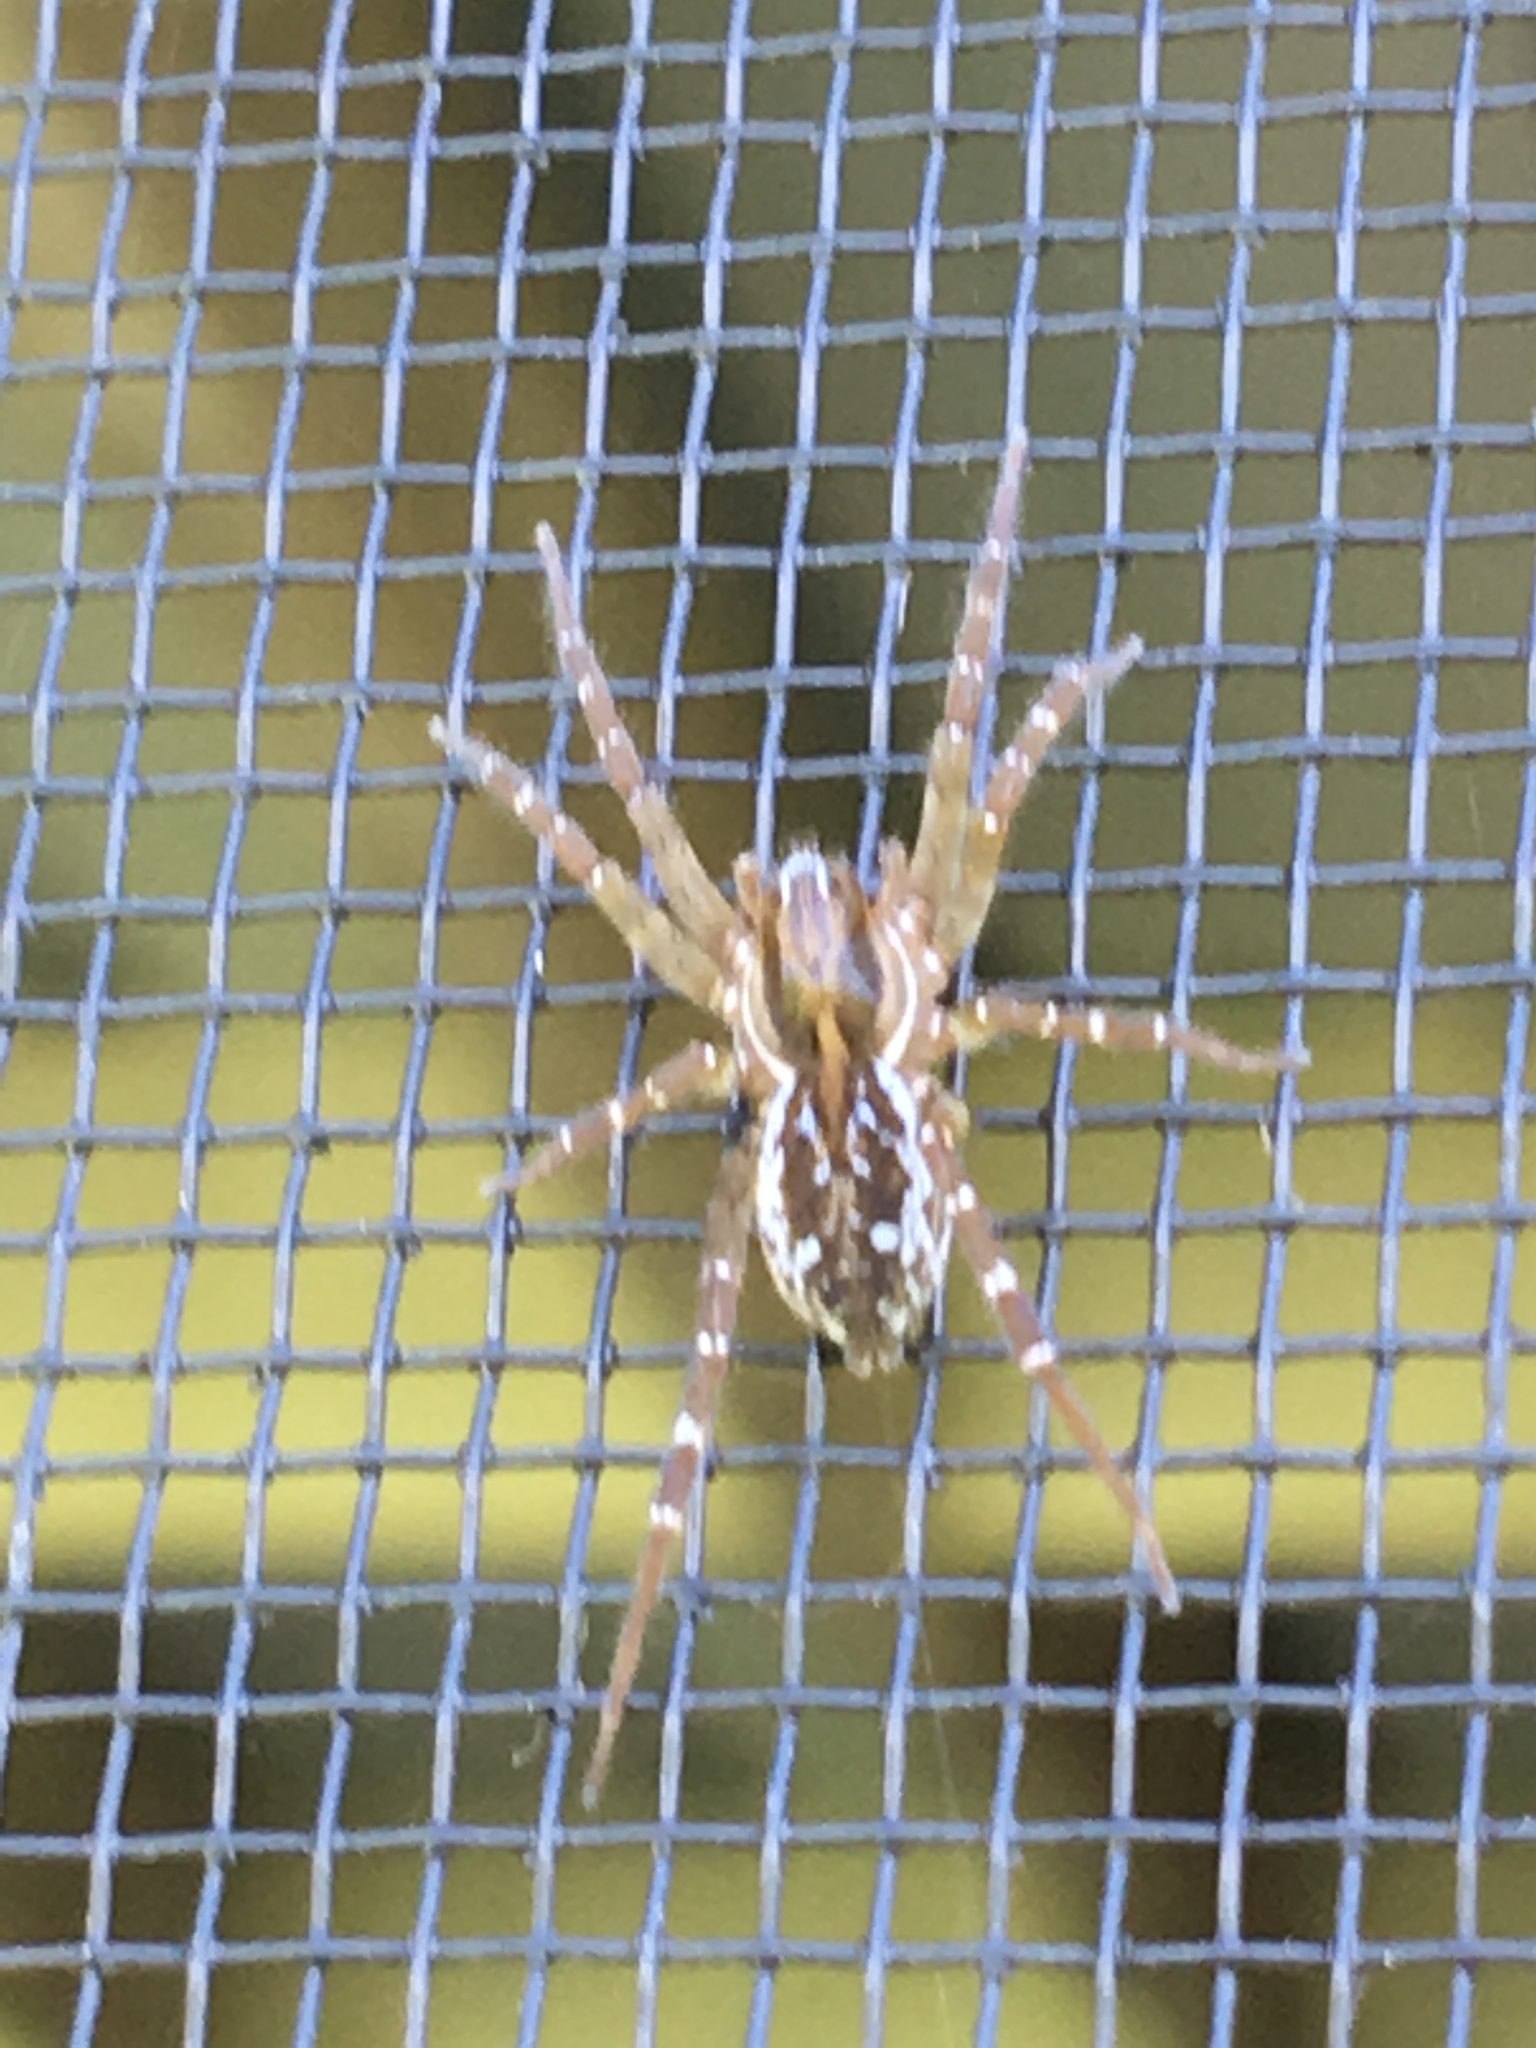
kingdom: Animalia
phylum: Arthropoda
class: Arachnida
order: Araneae
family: Pisauridae
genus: Dolomedes
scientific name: Dolomedes scriptus
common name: Striped fishing spider
